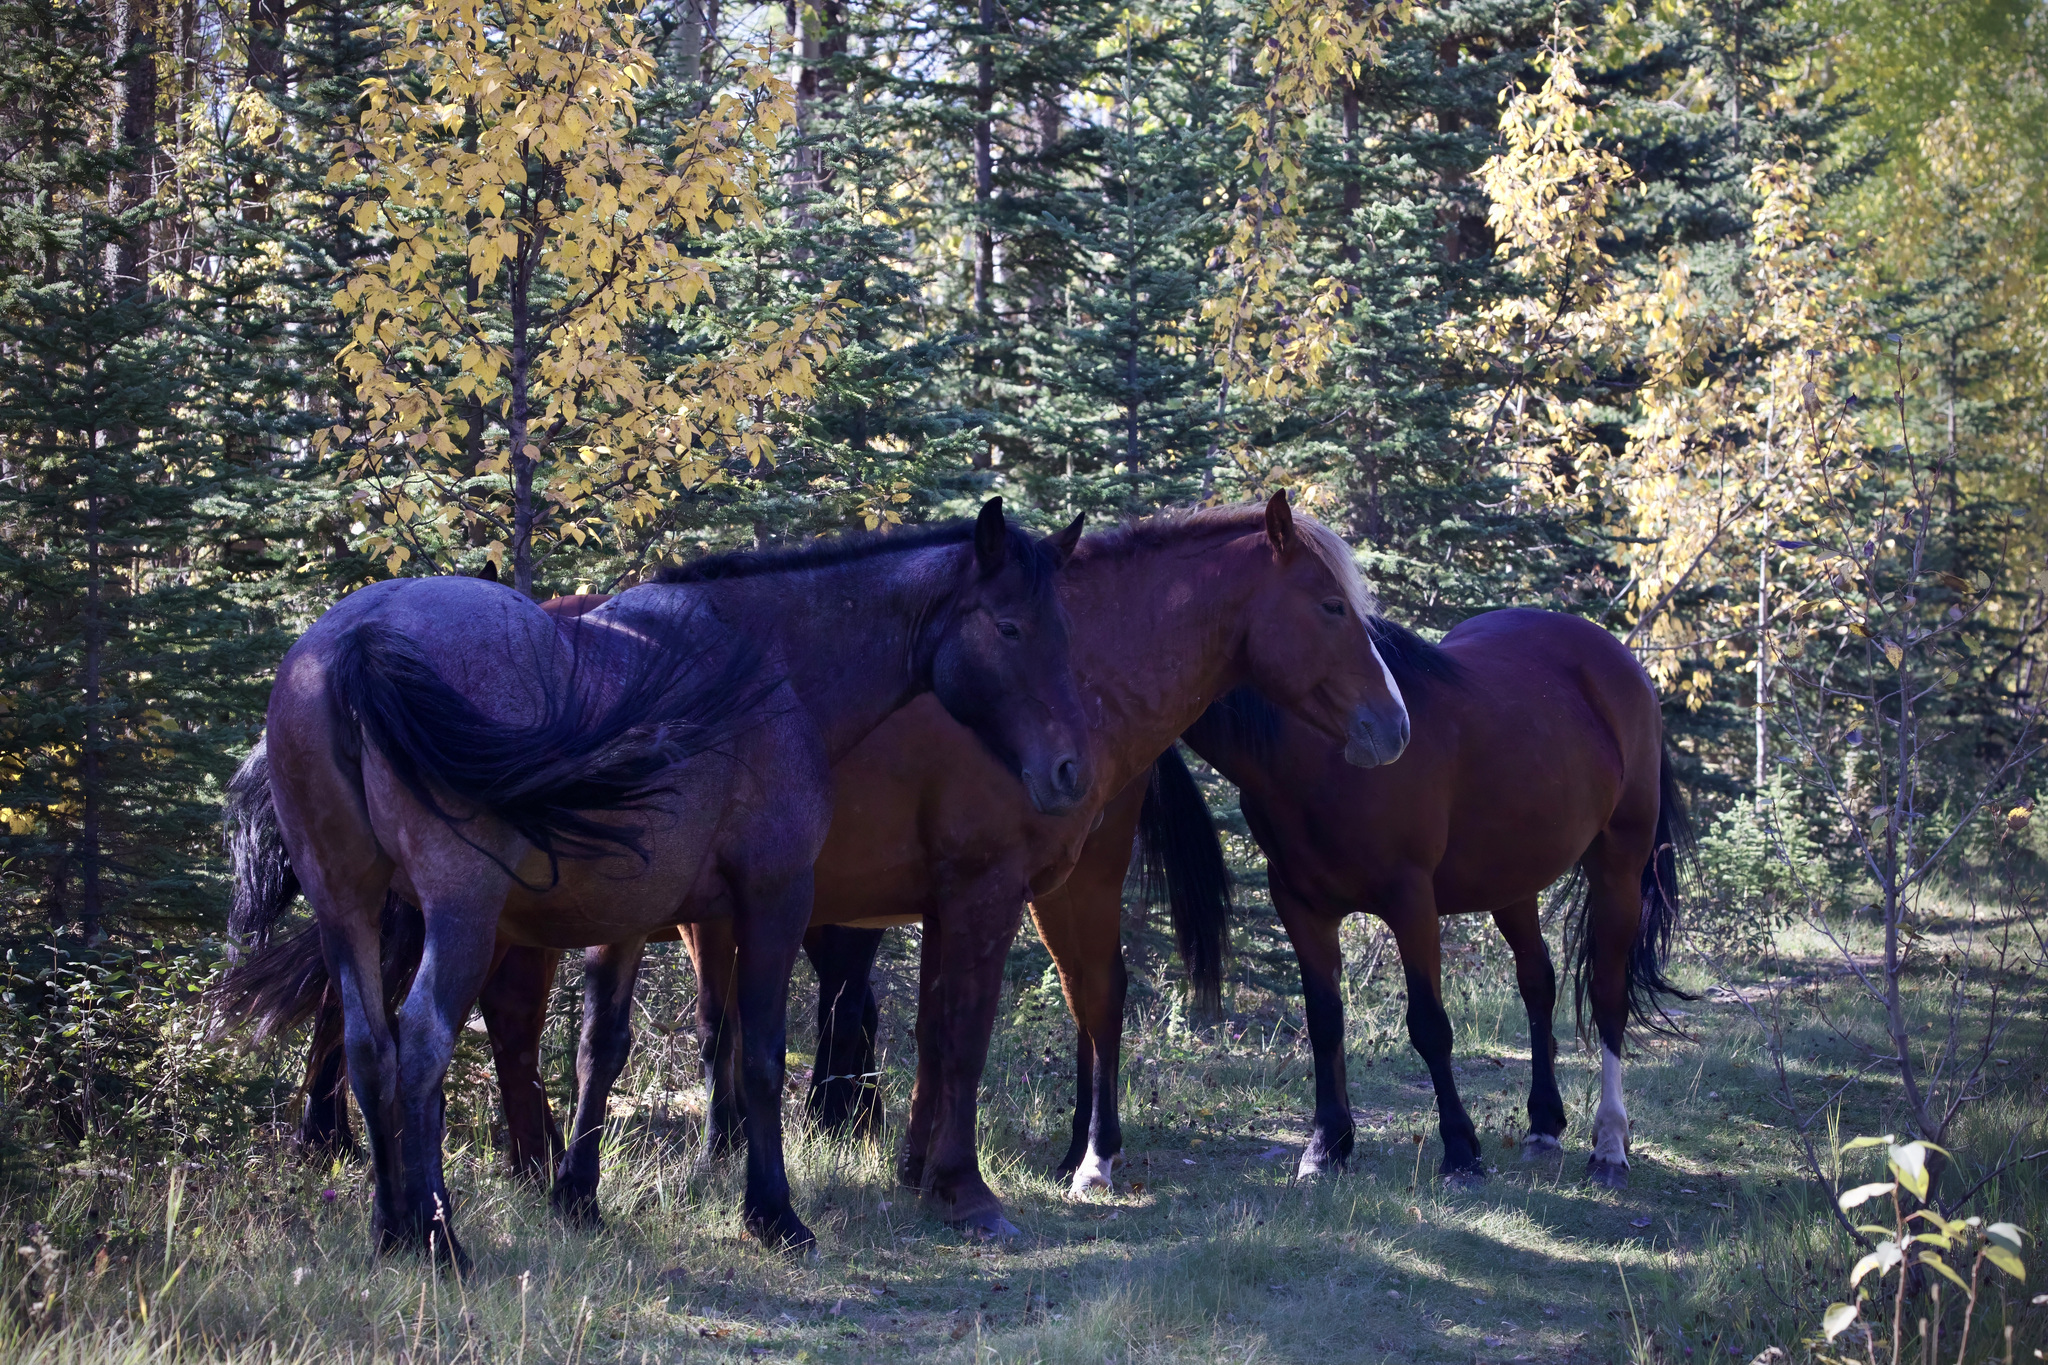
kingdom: Animalia
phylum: Chordata
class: Mammalia
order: Perissodactyla
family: Equidae
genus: Equus
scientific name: Equus caballus
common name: Horse
